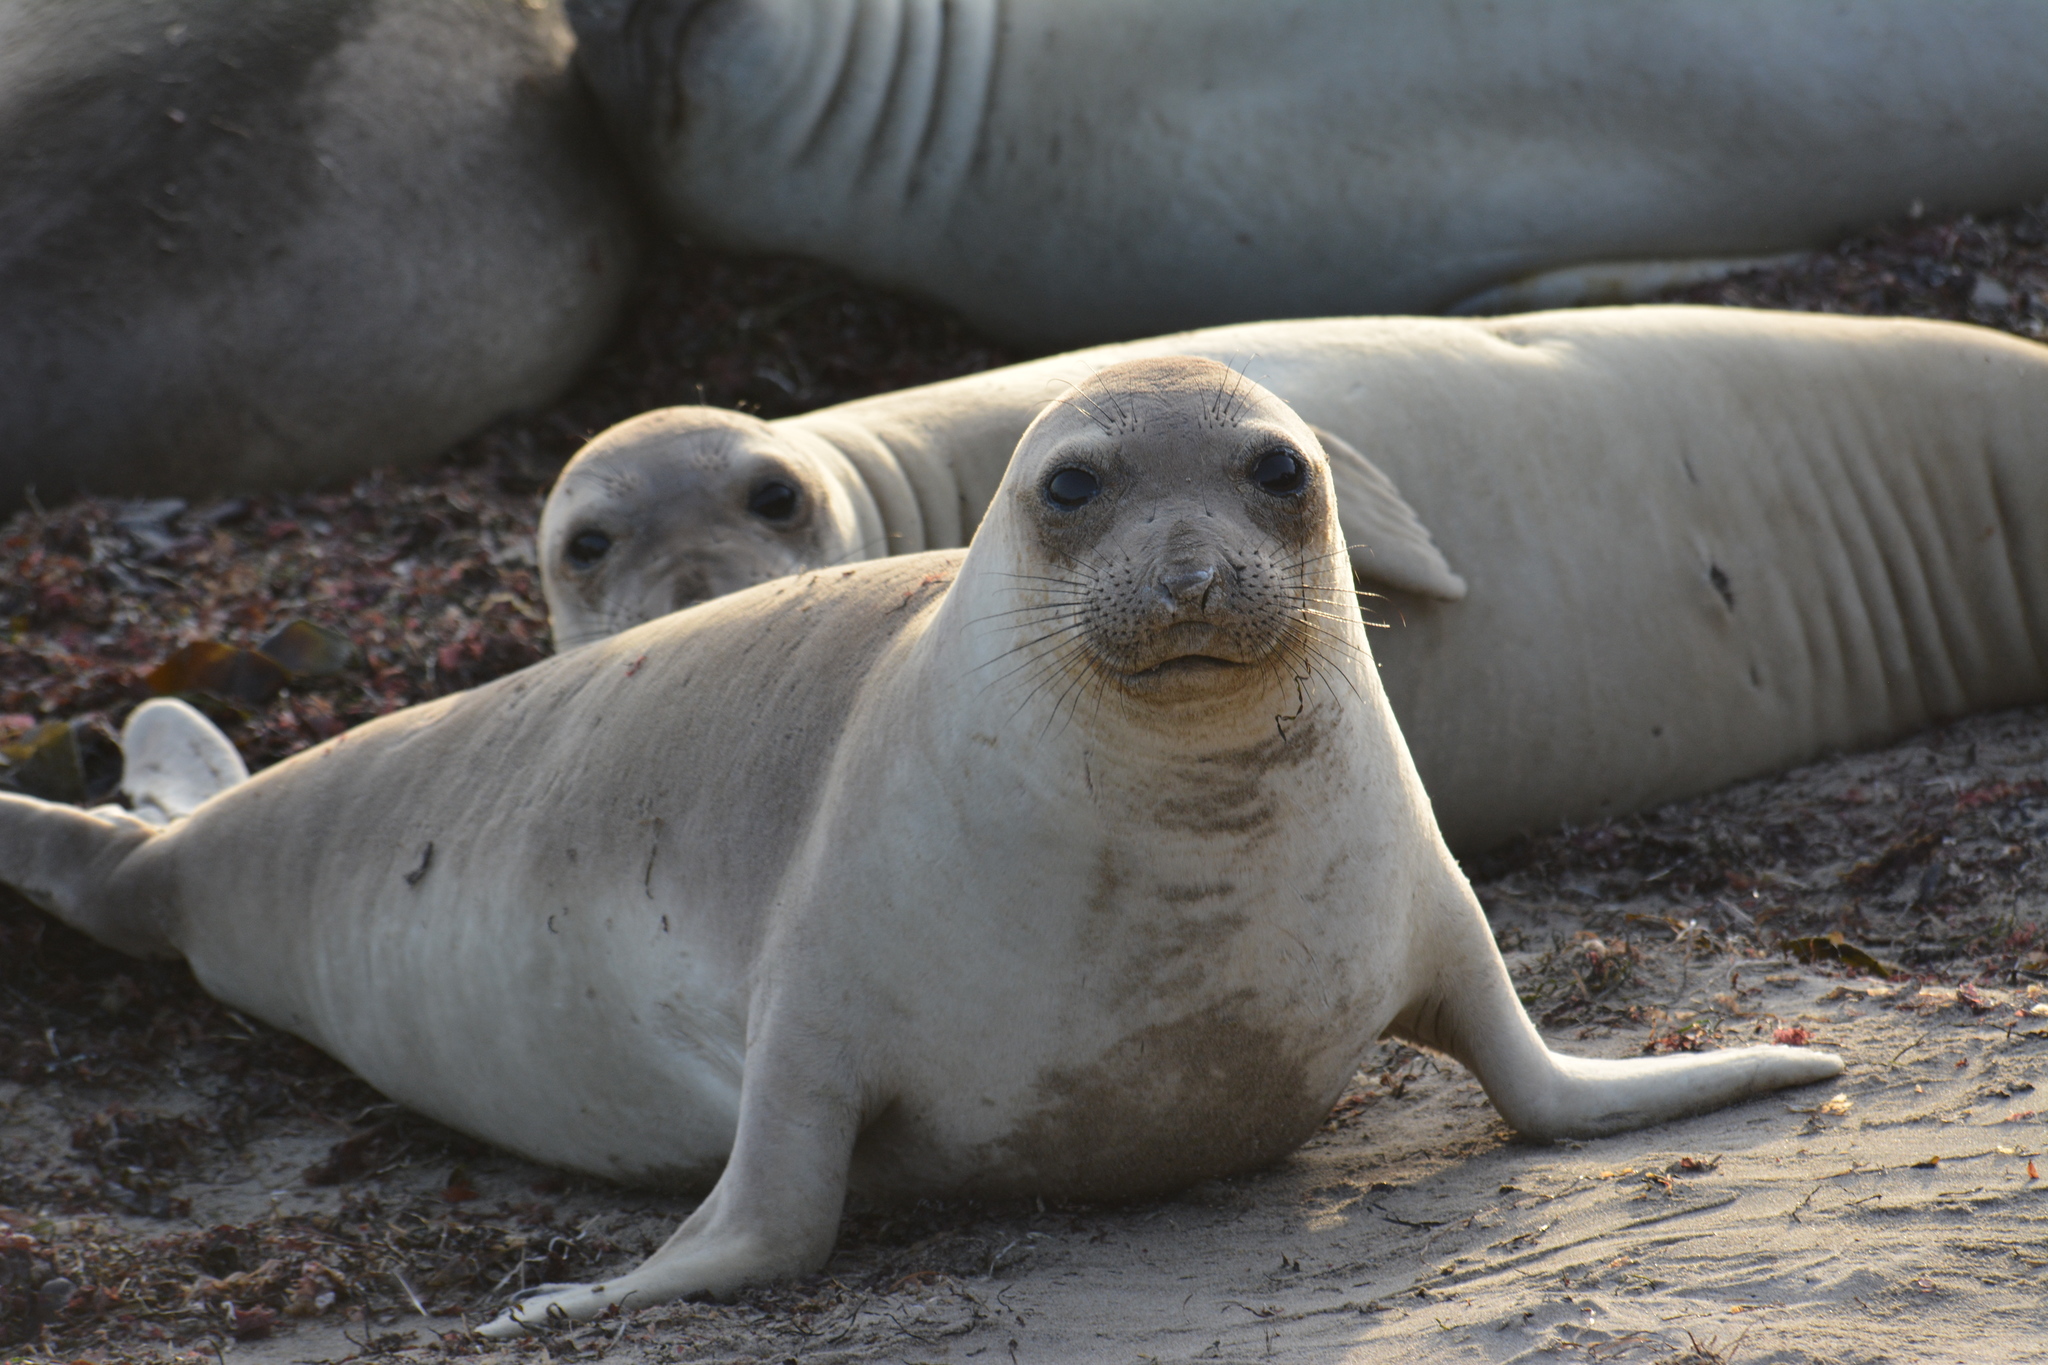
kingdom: Animalia
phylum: Chordata
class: Mammalia
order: Carnivora
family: Phocidae
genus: Mirounga
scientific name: Mirounga angustirostris
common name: Northern elephant seal
